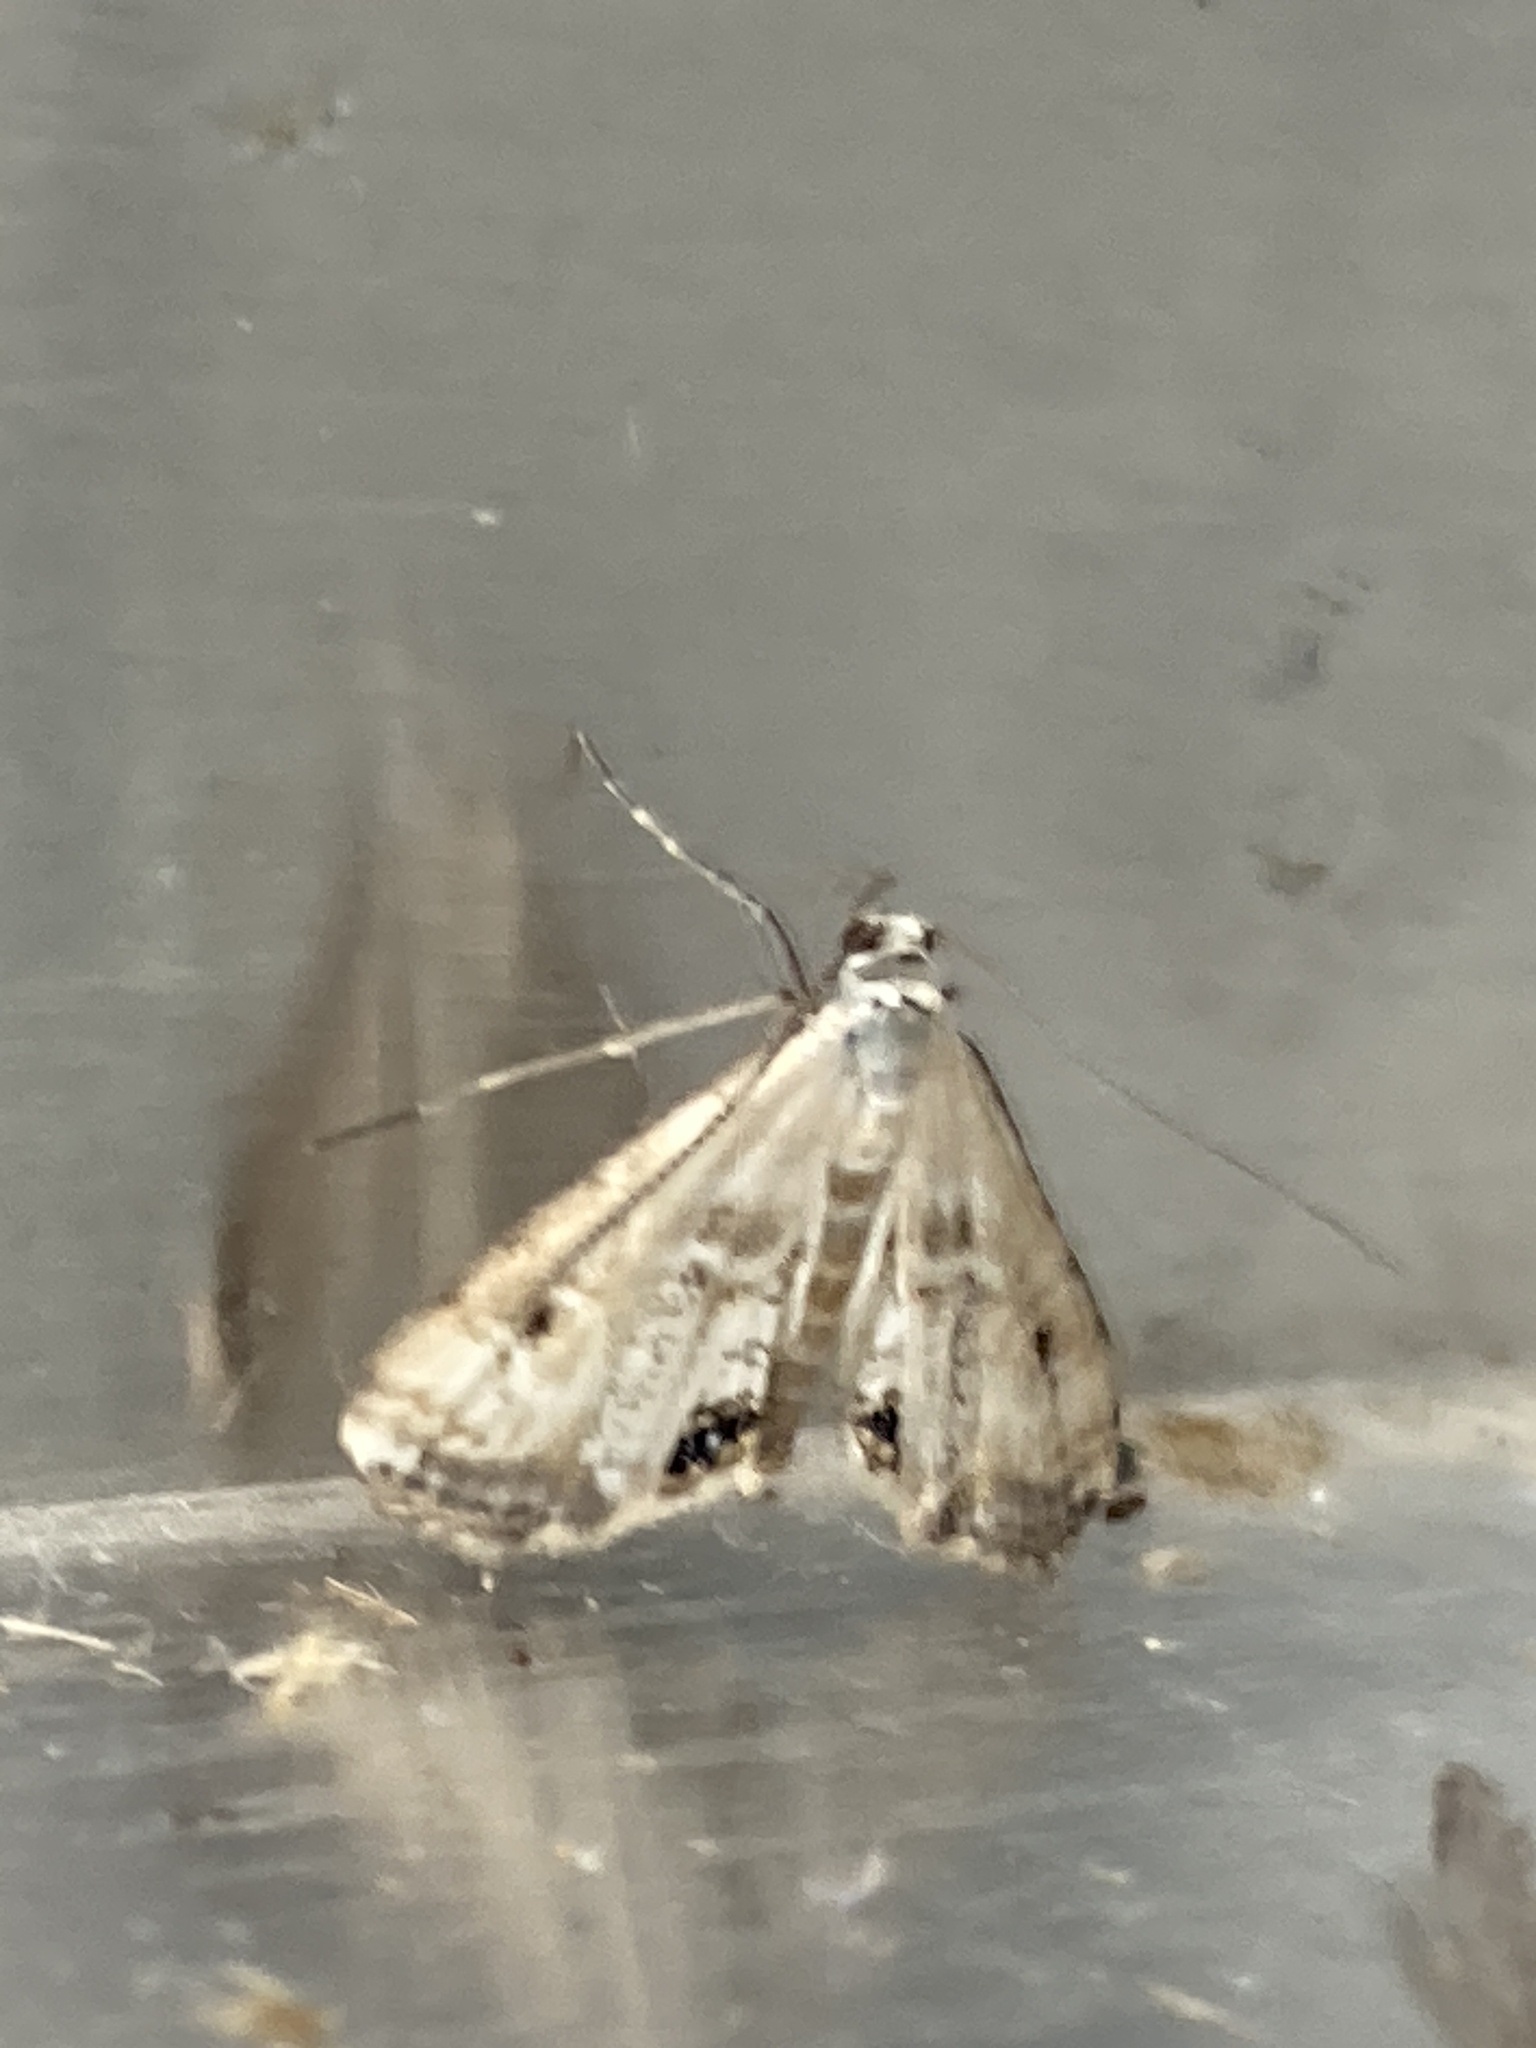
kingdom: Animalia
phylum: Arthropoda
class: Insecta
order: Lepidoptera
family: Crambidae
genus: Cataclysta
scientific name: Cataclysta lemnata
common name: Small china-mark
